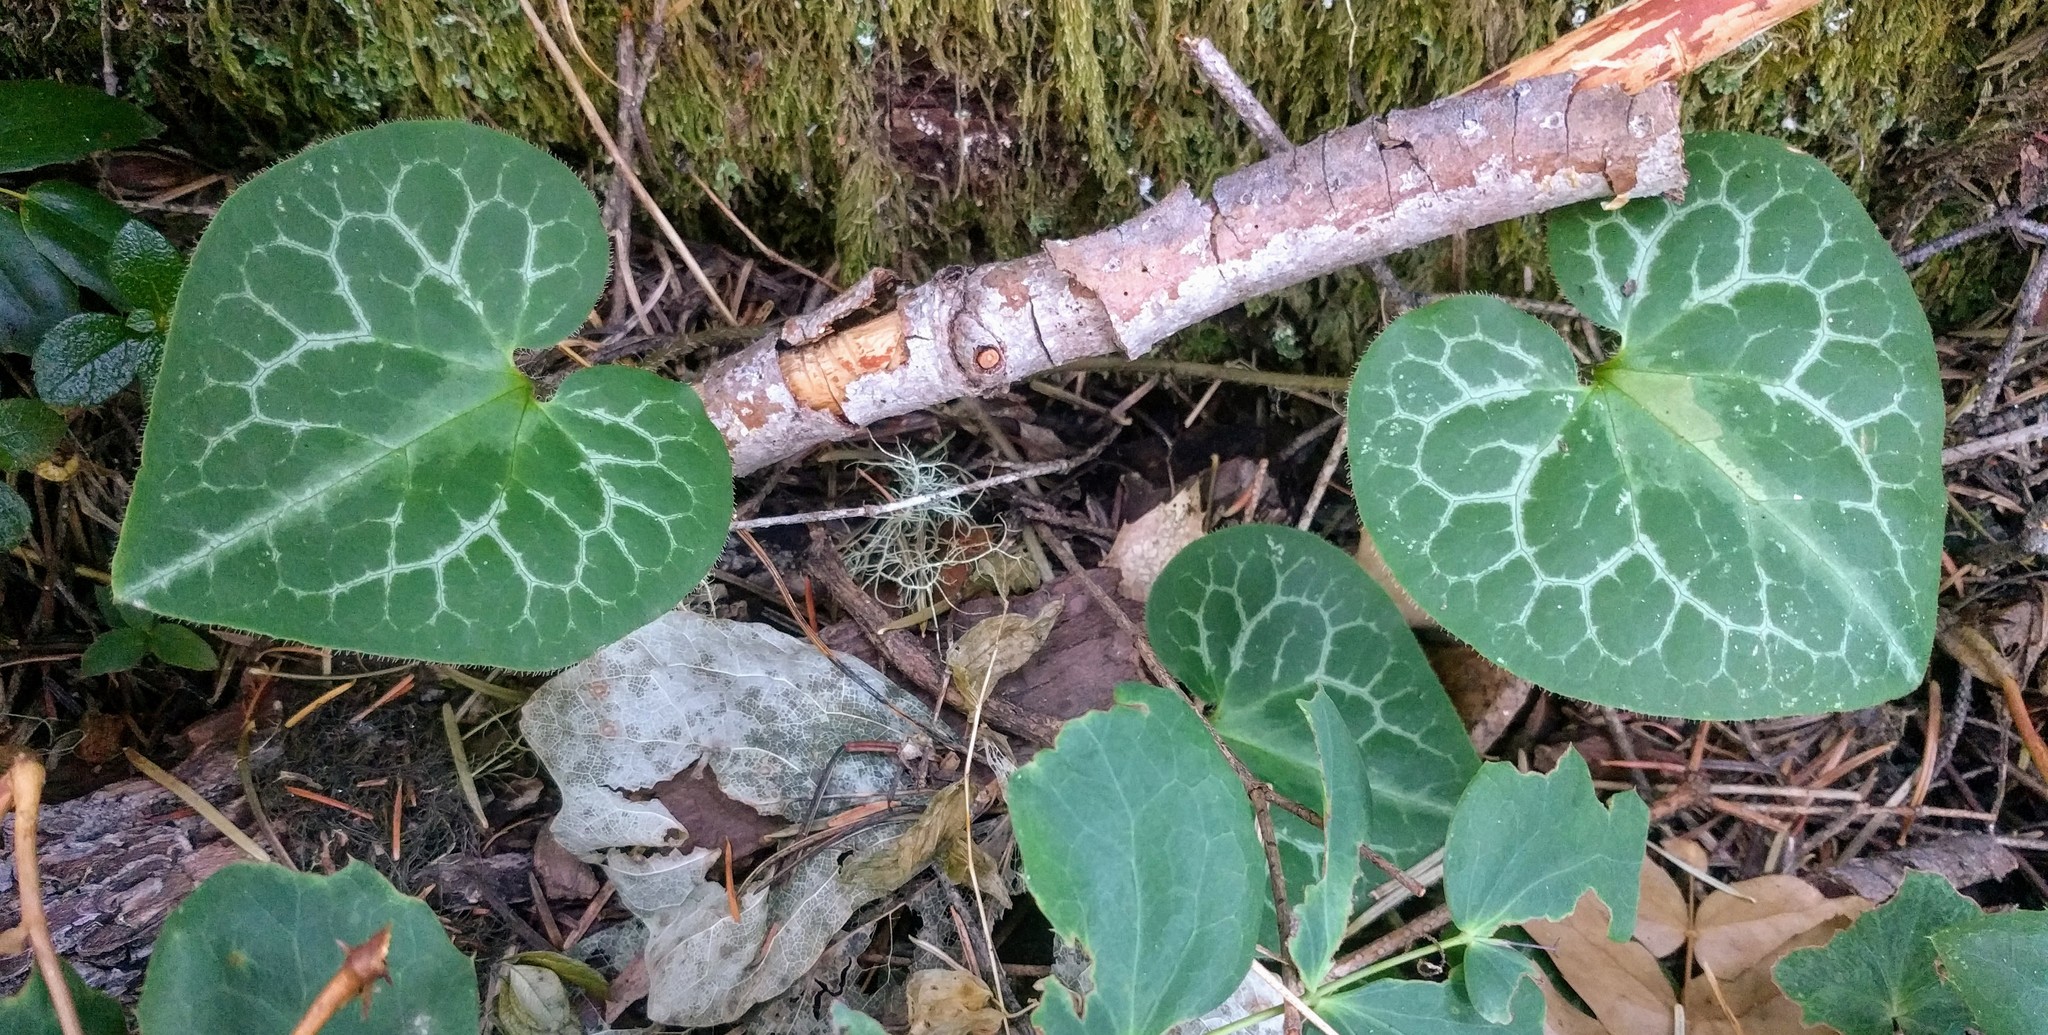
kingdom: Plantae
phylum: Tracheophyta
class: Magnoliopsida
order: Piperales
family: Aristolochiaceae
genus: Asarum
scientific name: Asarum marmoratum
